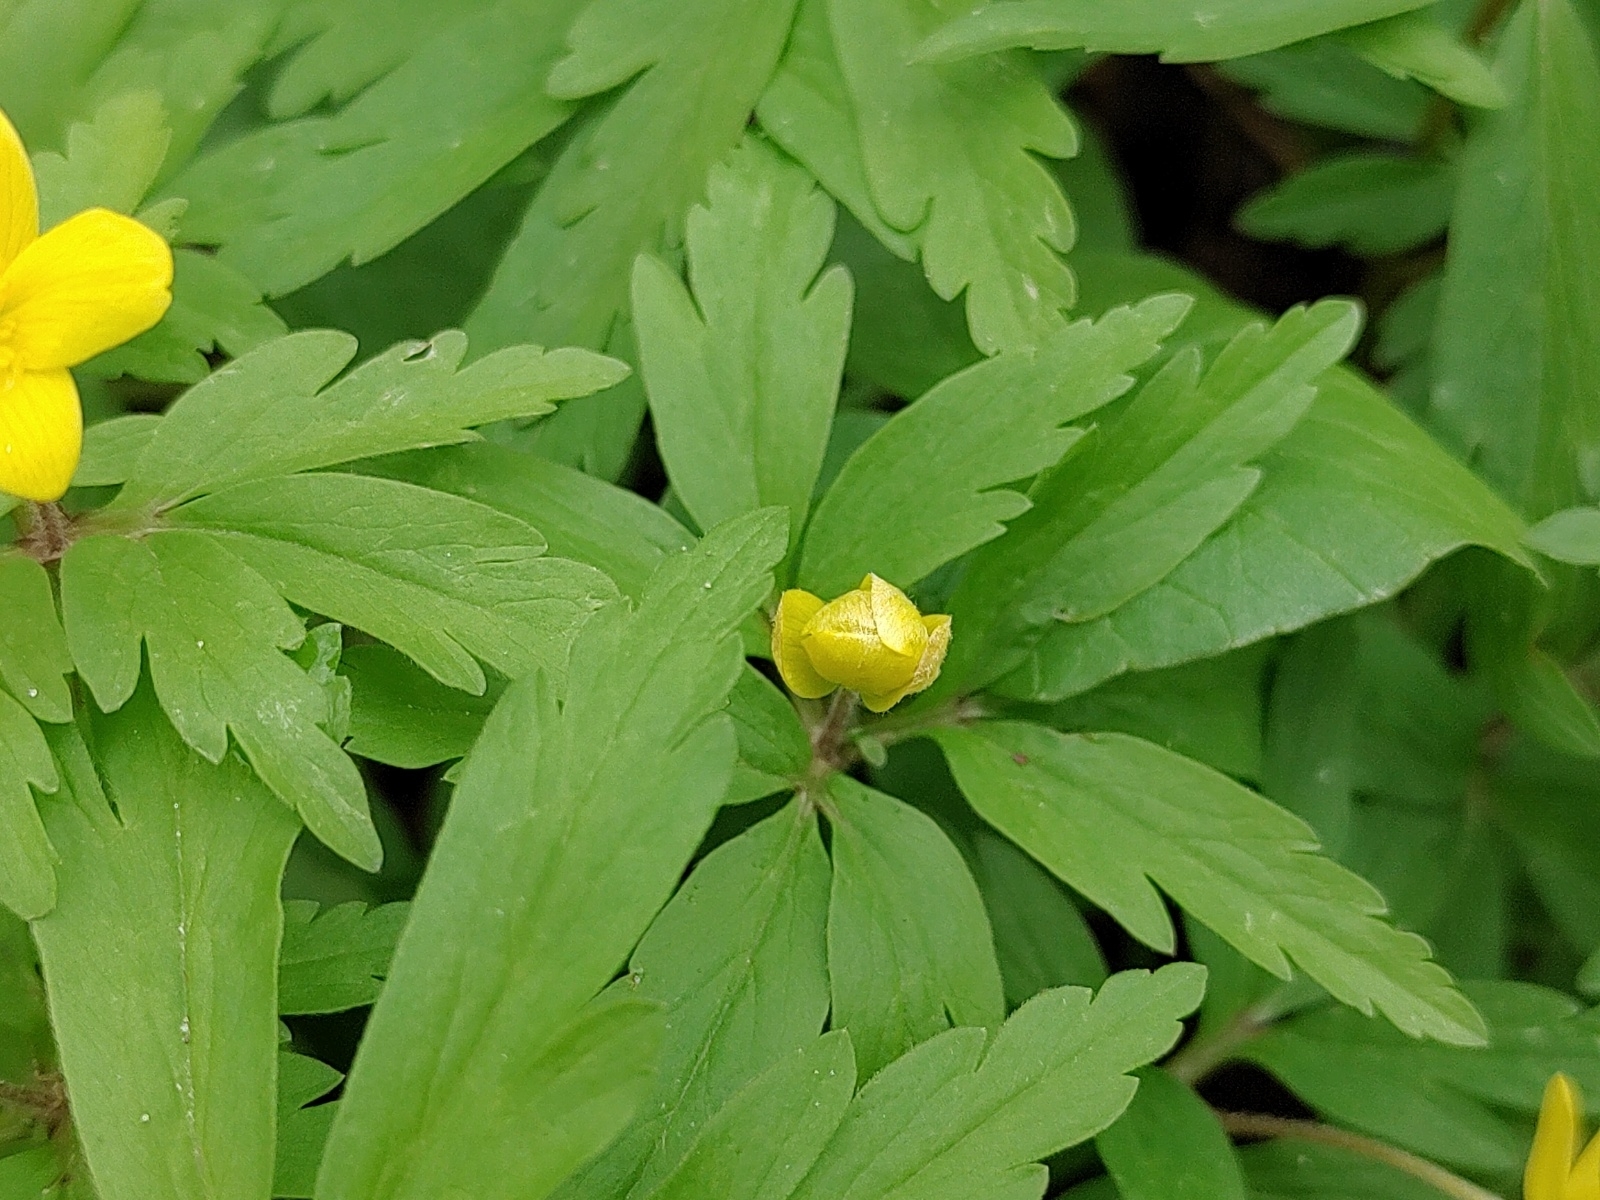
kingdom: Plantae
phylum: Tracheophyta
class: Magnoliopsida
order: Ranunculales
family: Ranunculaceae
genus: Anemone
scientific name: Anemone ranunculoides
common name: Yellow anemone
